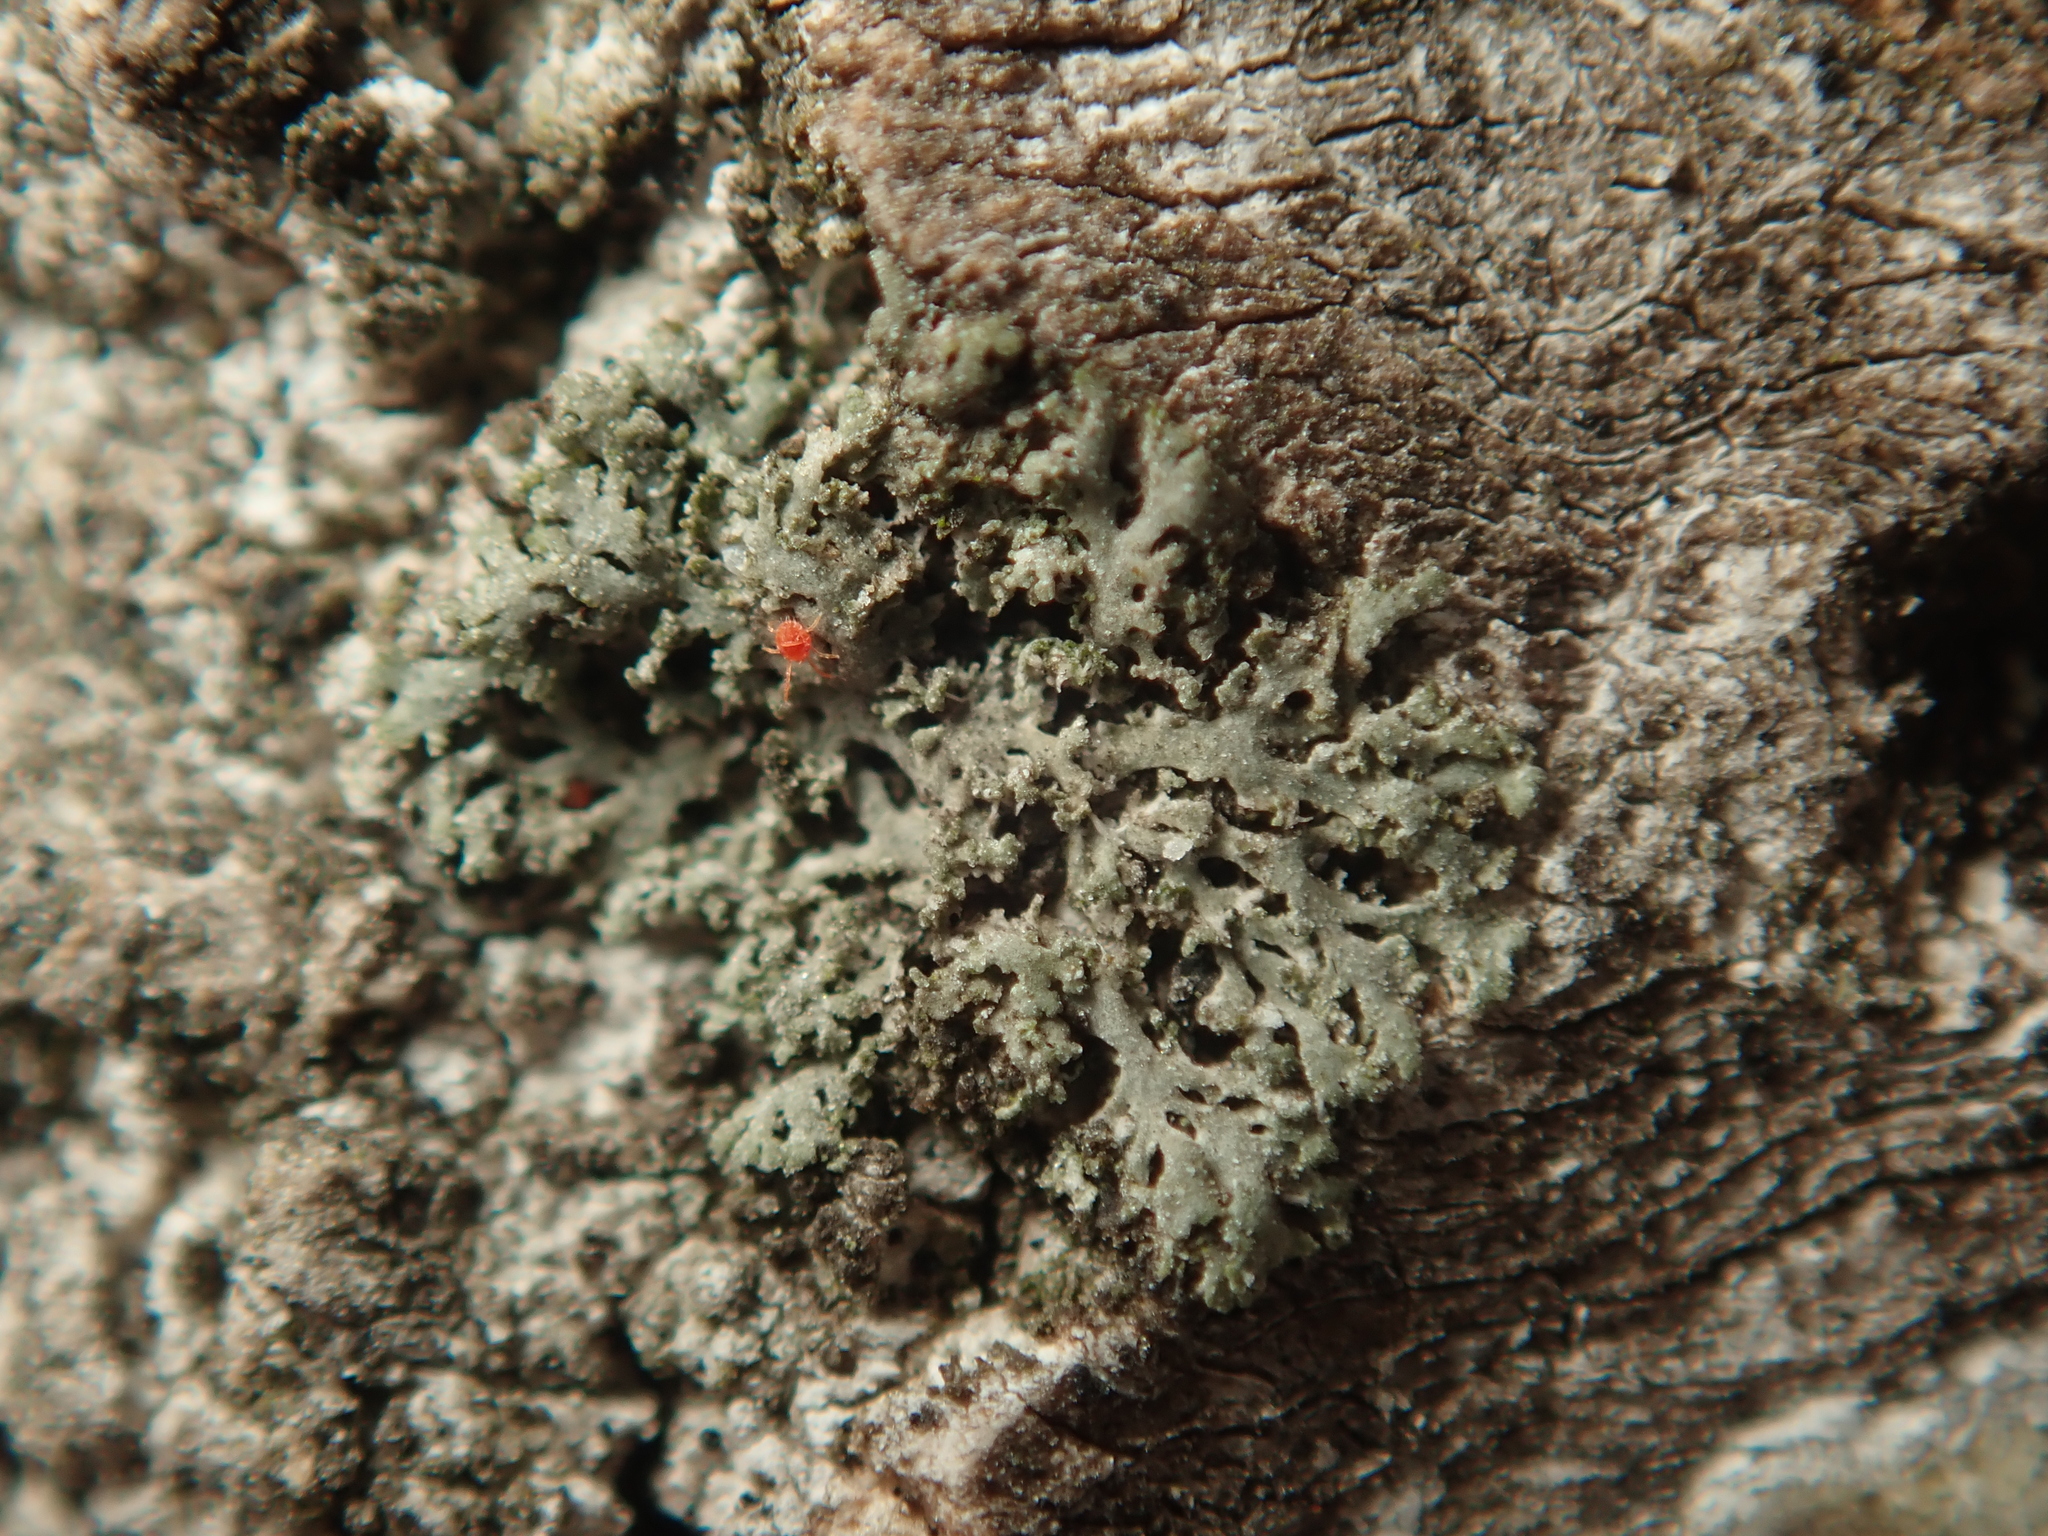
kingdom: Fungi
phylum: Ascomycota
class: Lecanoromycetes
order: Caliciales
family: Physciaceae
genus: Physciella
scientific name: Physciella nigricans
